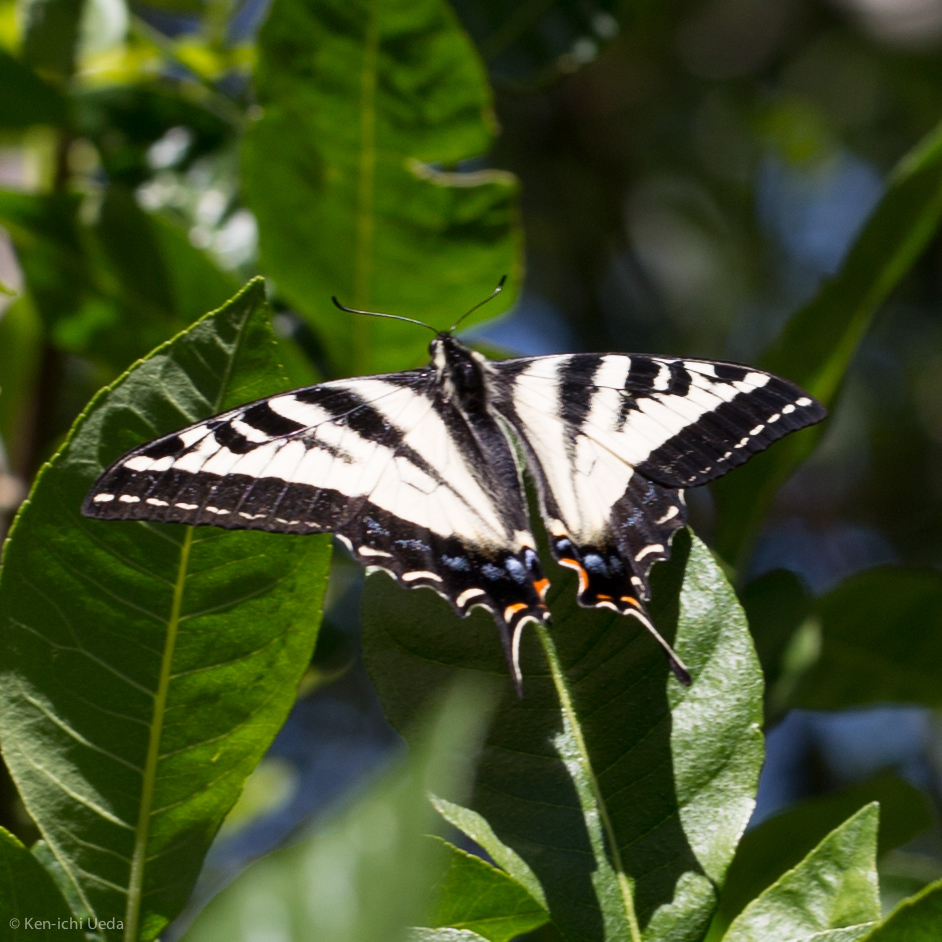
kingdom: Animalia
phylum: Arthropoda
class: Insecta
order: Lepidoptera
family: Papilionidae
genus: Papilio
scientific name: Papilio eurymedon
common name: Pale tiger swallowtail
